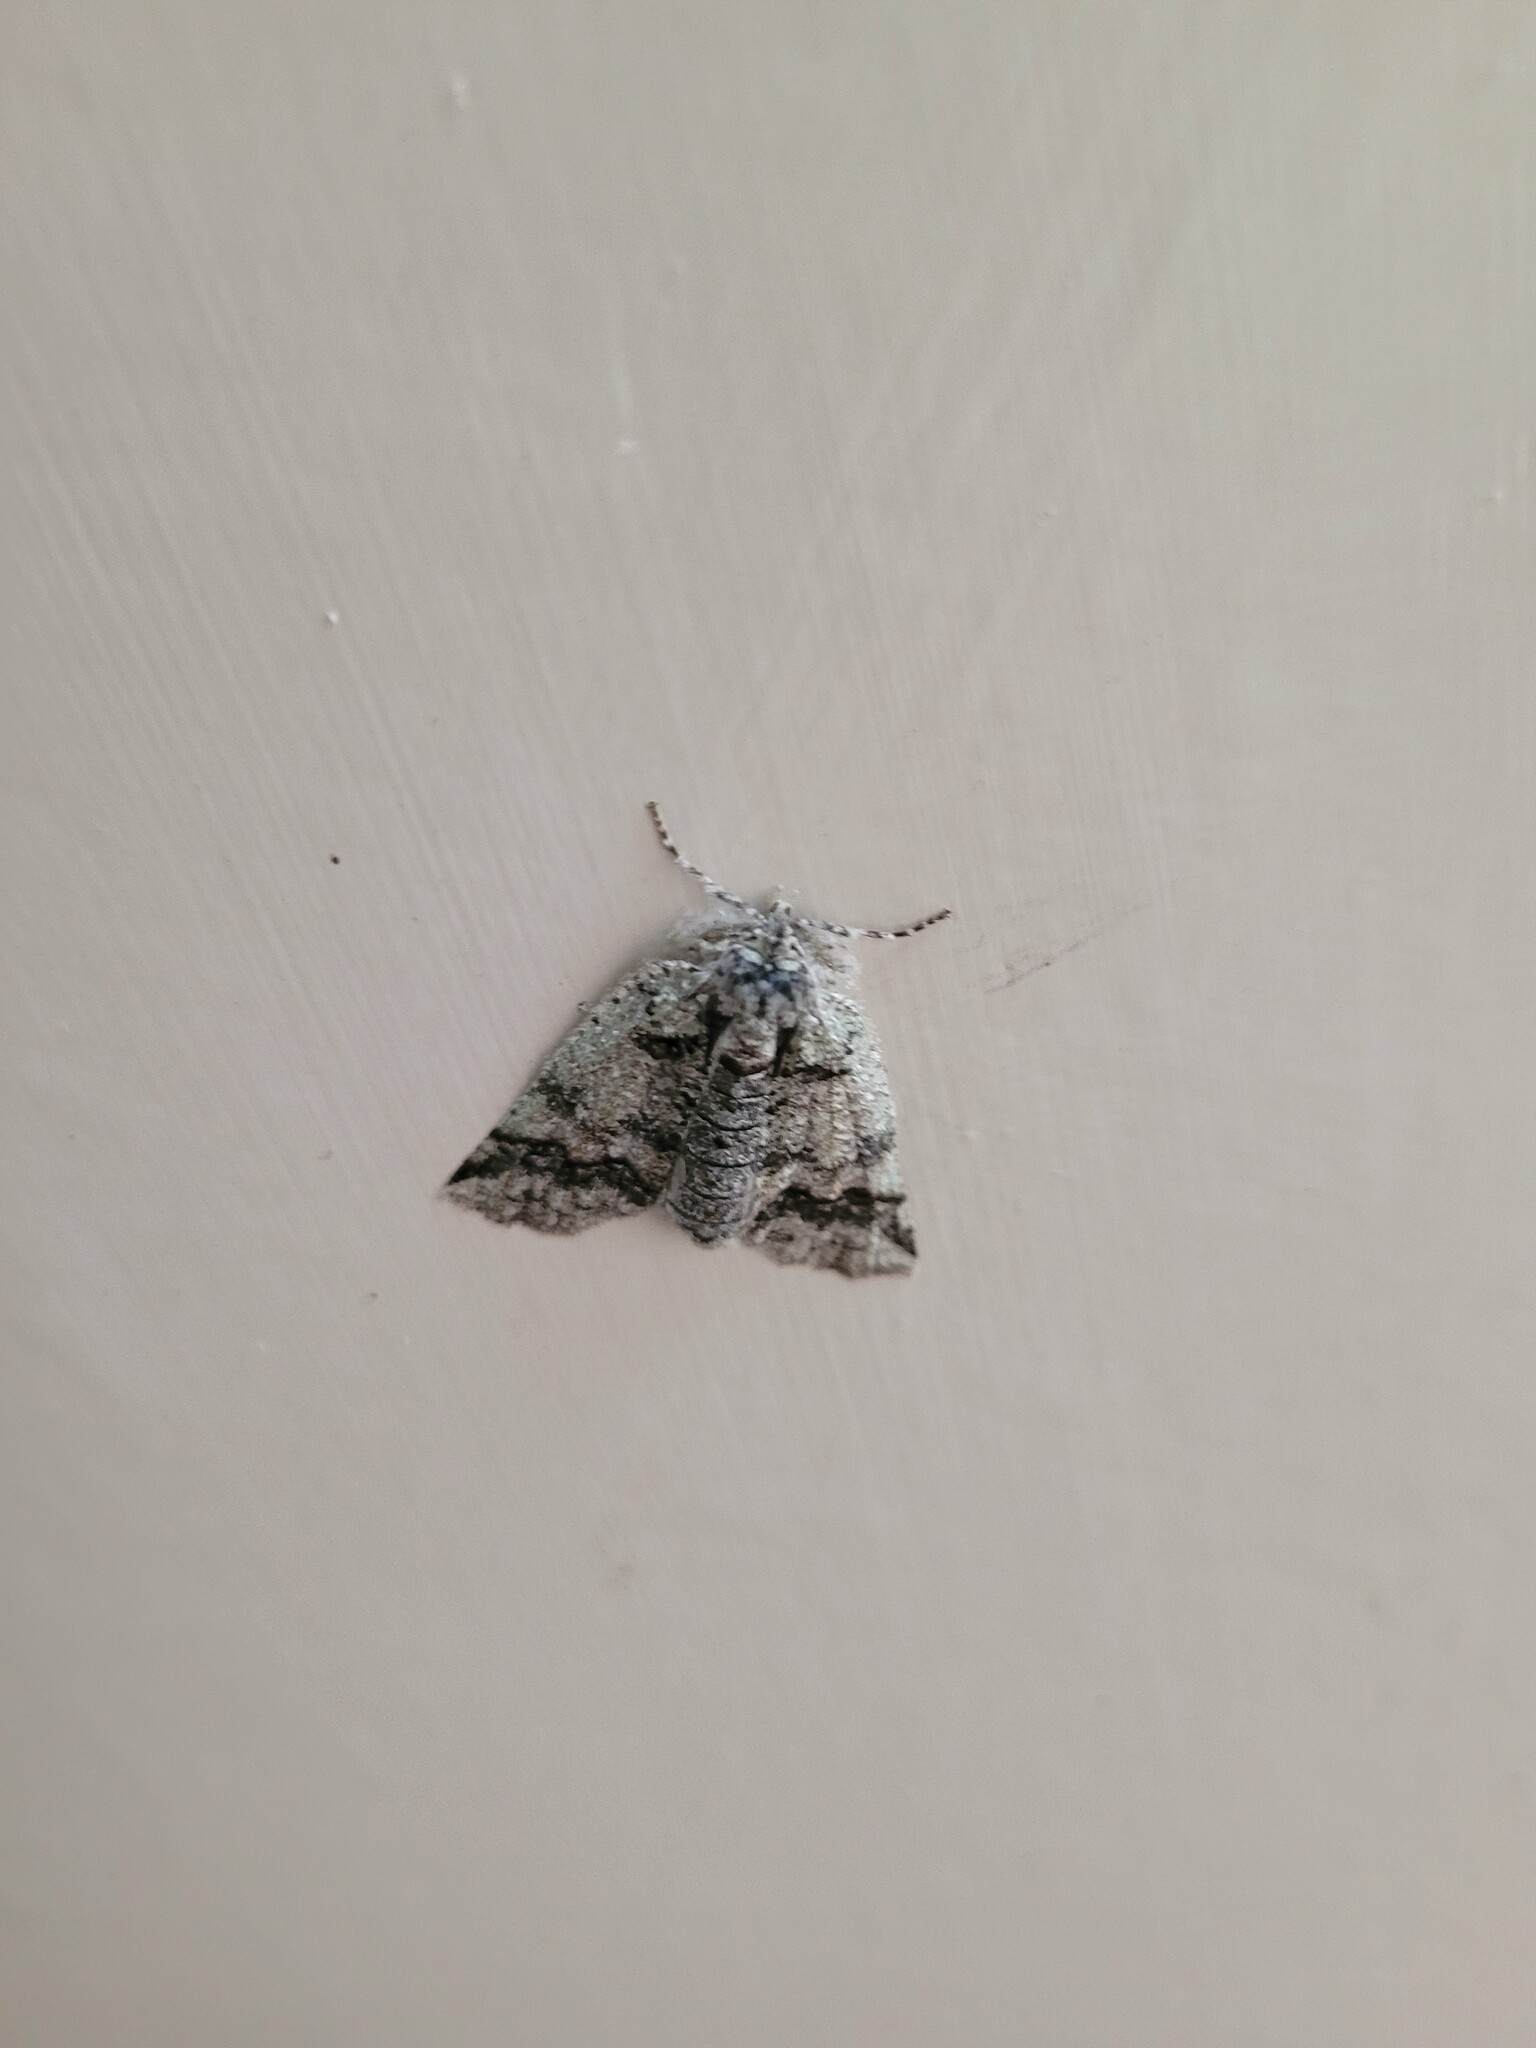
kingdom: Animalia
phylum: Arthropoda
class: Insecta
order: Lepidoptera
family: Geometridae
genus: Declana
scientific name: Declana floccosa
